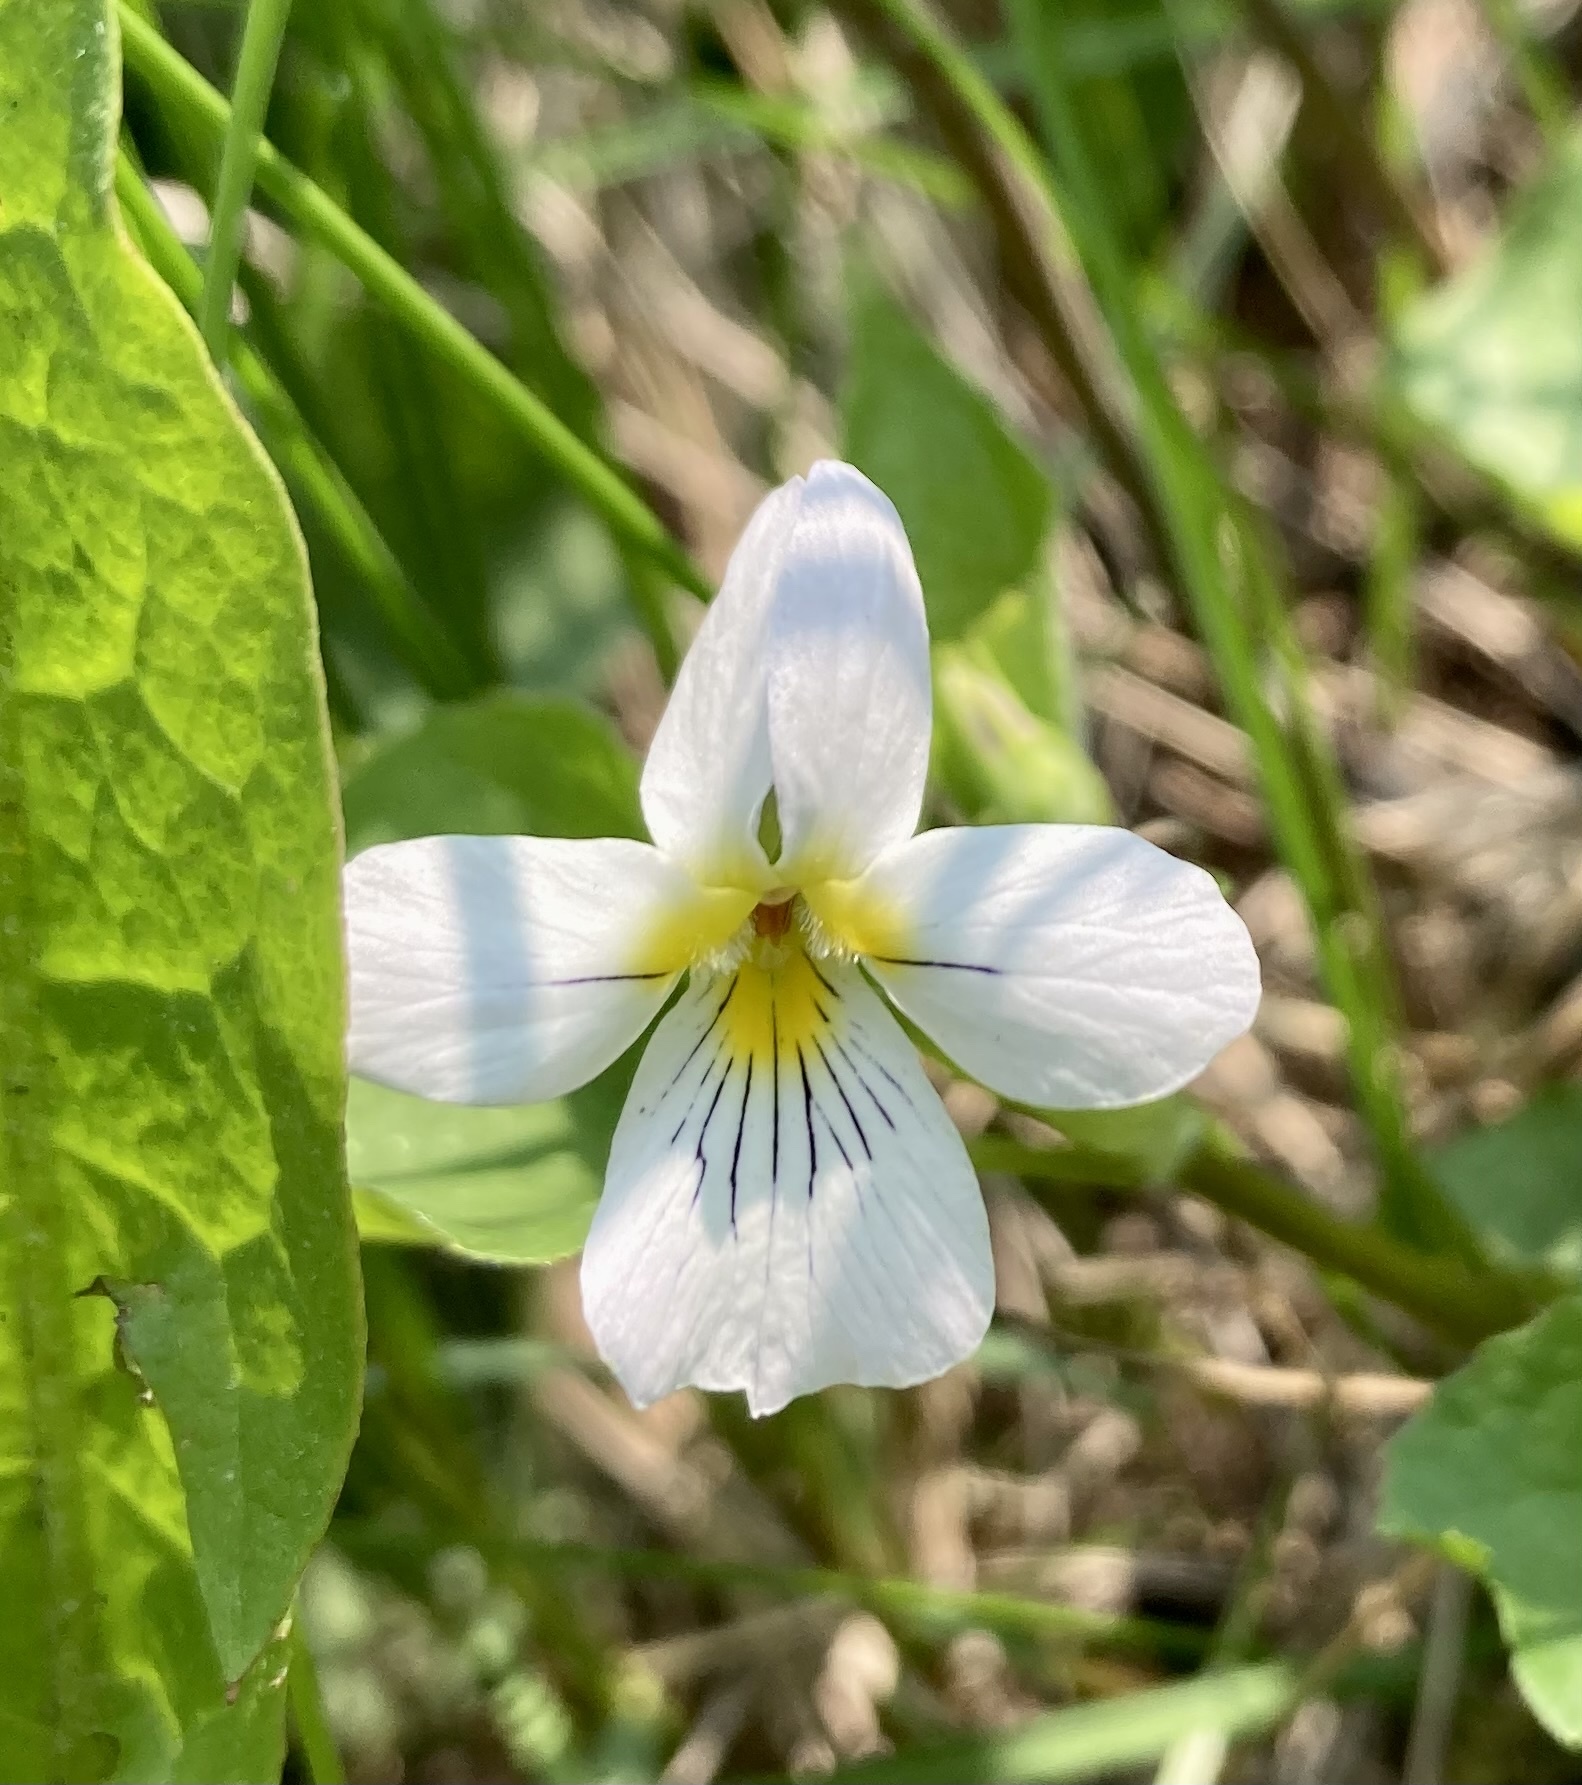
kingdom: Plantae
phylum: Tracheophyta
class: Magnoliopsida
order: Malpighiales
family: Violaceae
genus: Viola
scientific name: Viola canadensis
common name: Canada violet
